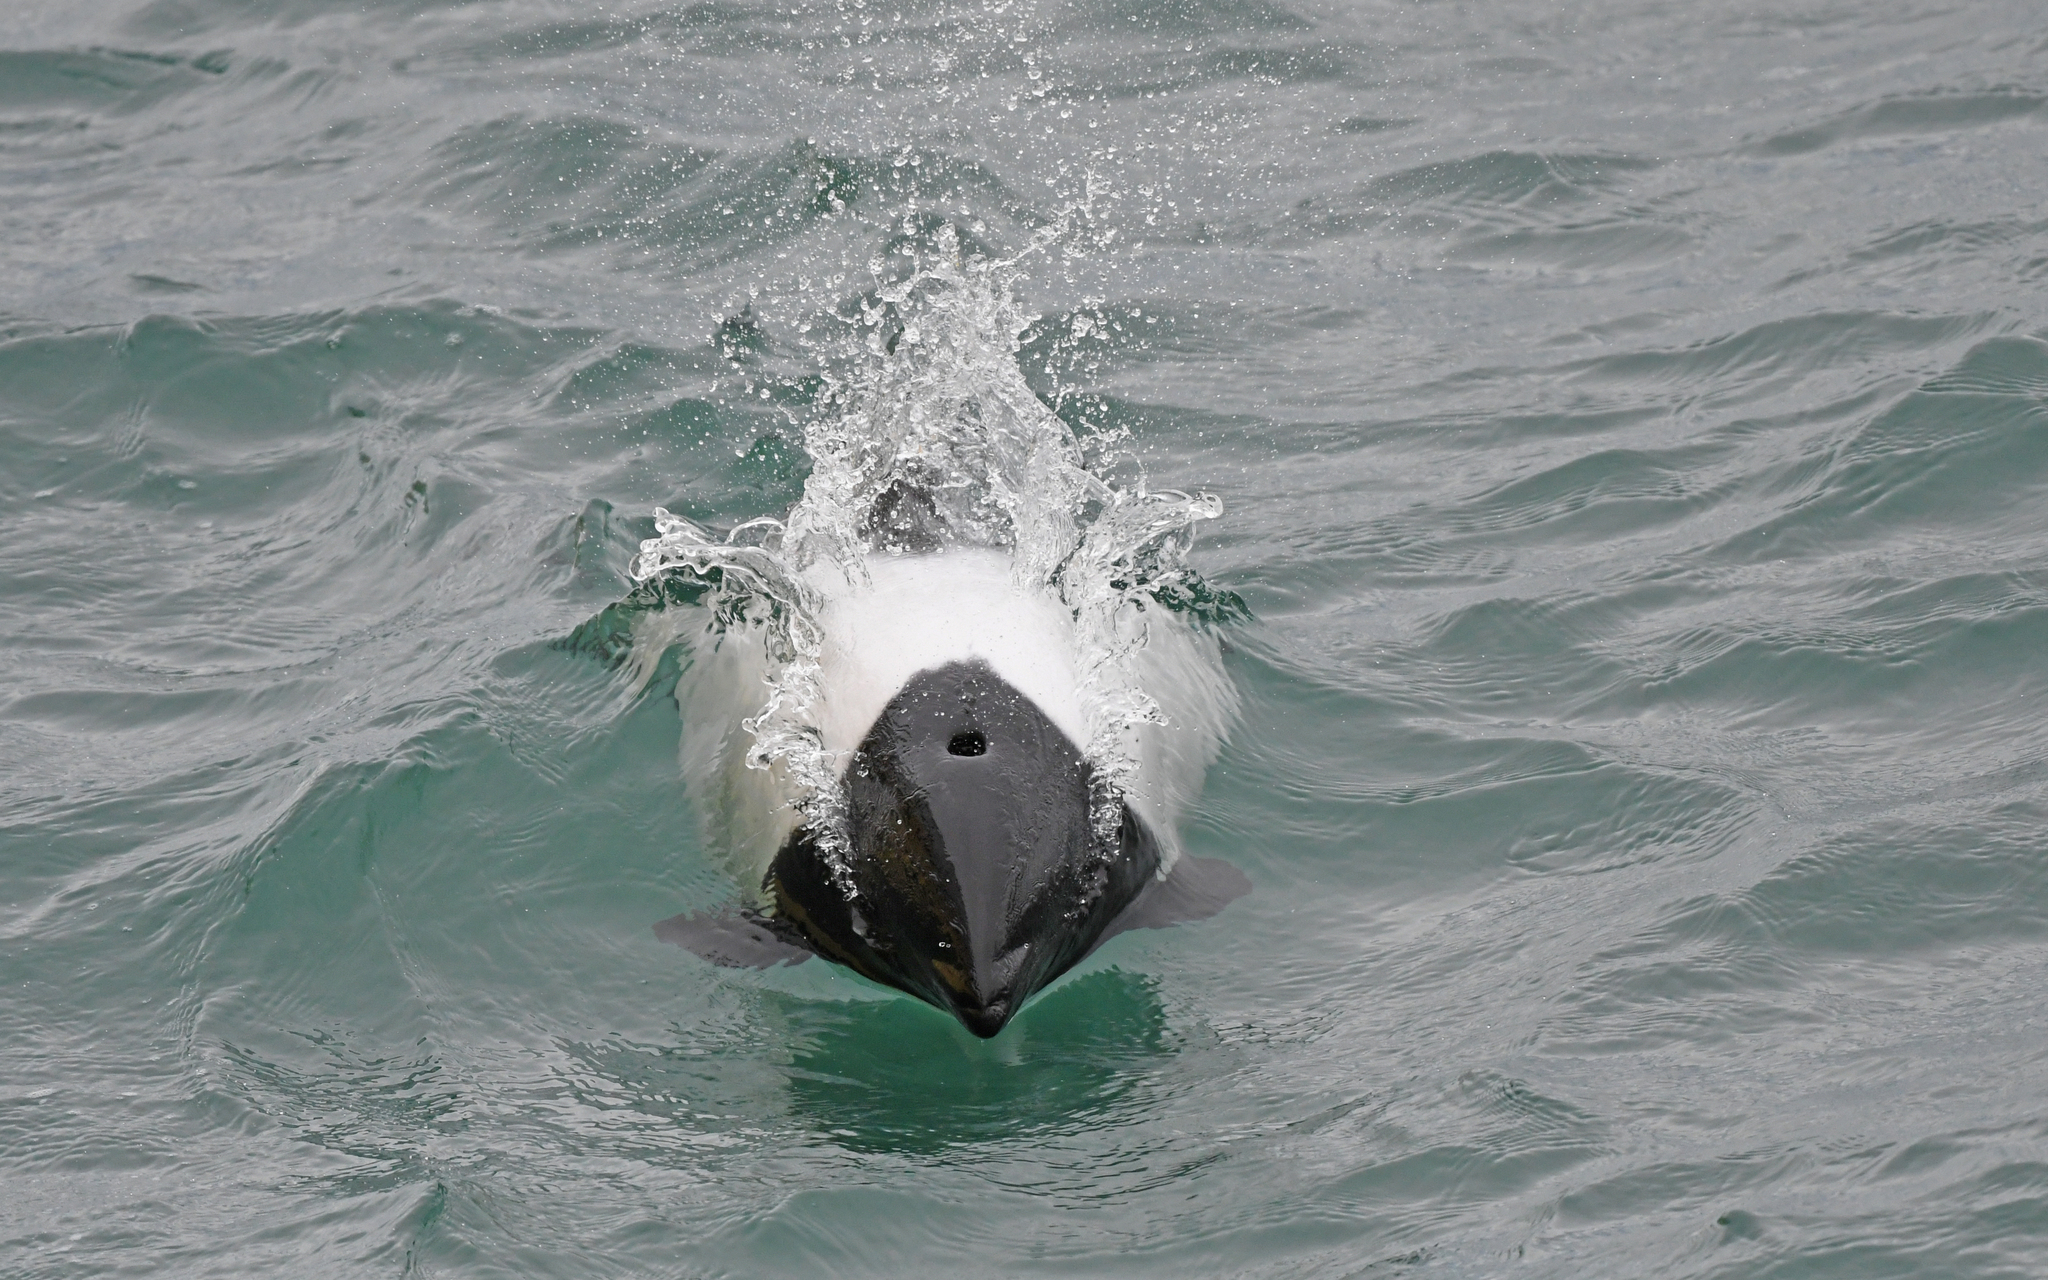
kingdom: Animalia
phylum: Chordata
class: Mammalia
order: Cetacea
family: Delphinidae
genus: Cephalorhynchus
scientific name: Cephalorhynchus commersonii
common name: Commerson's dolphin
